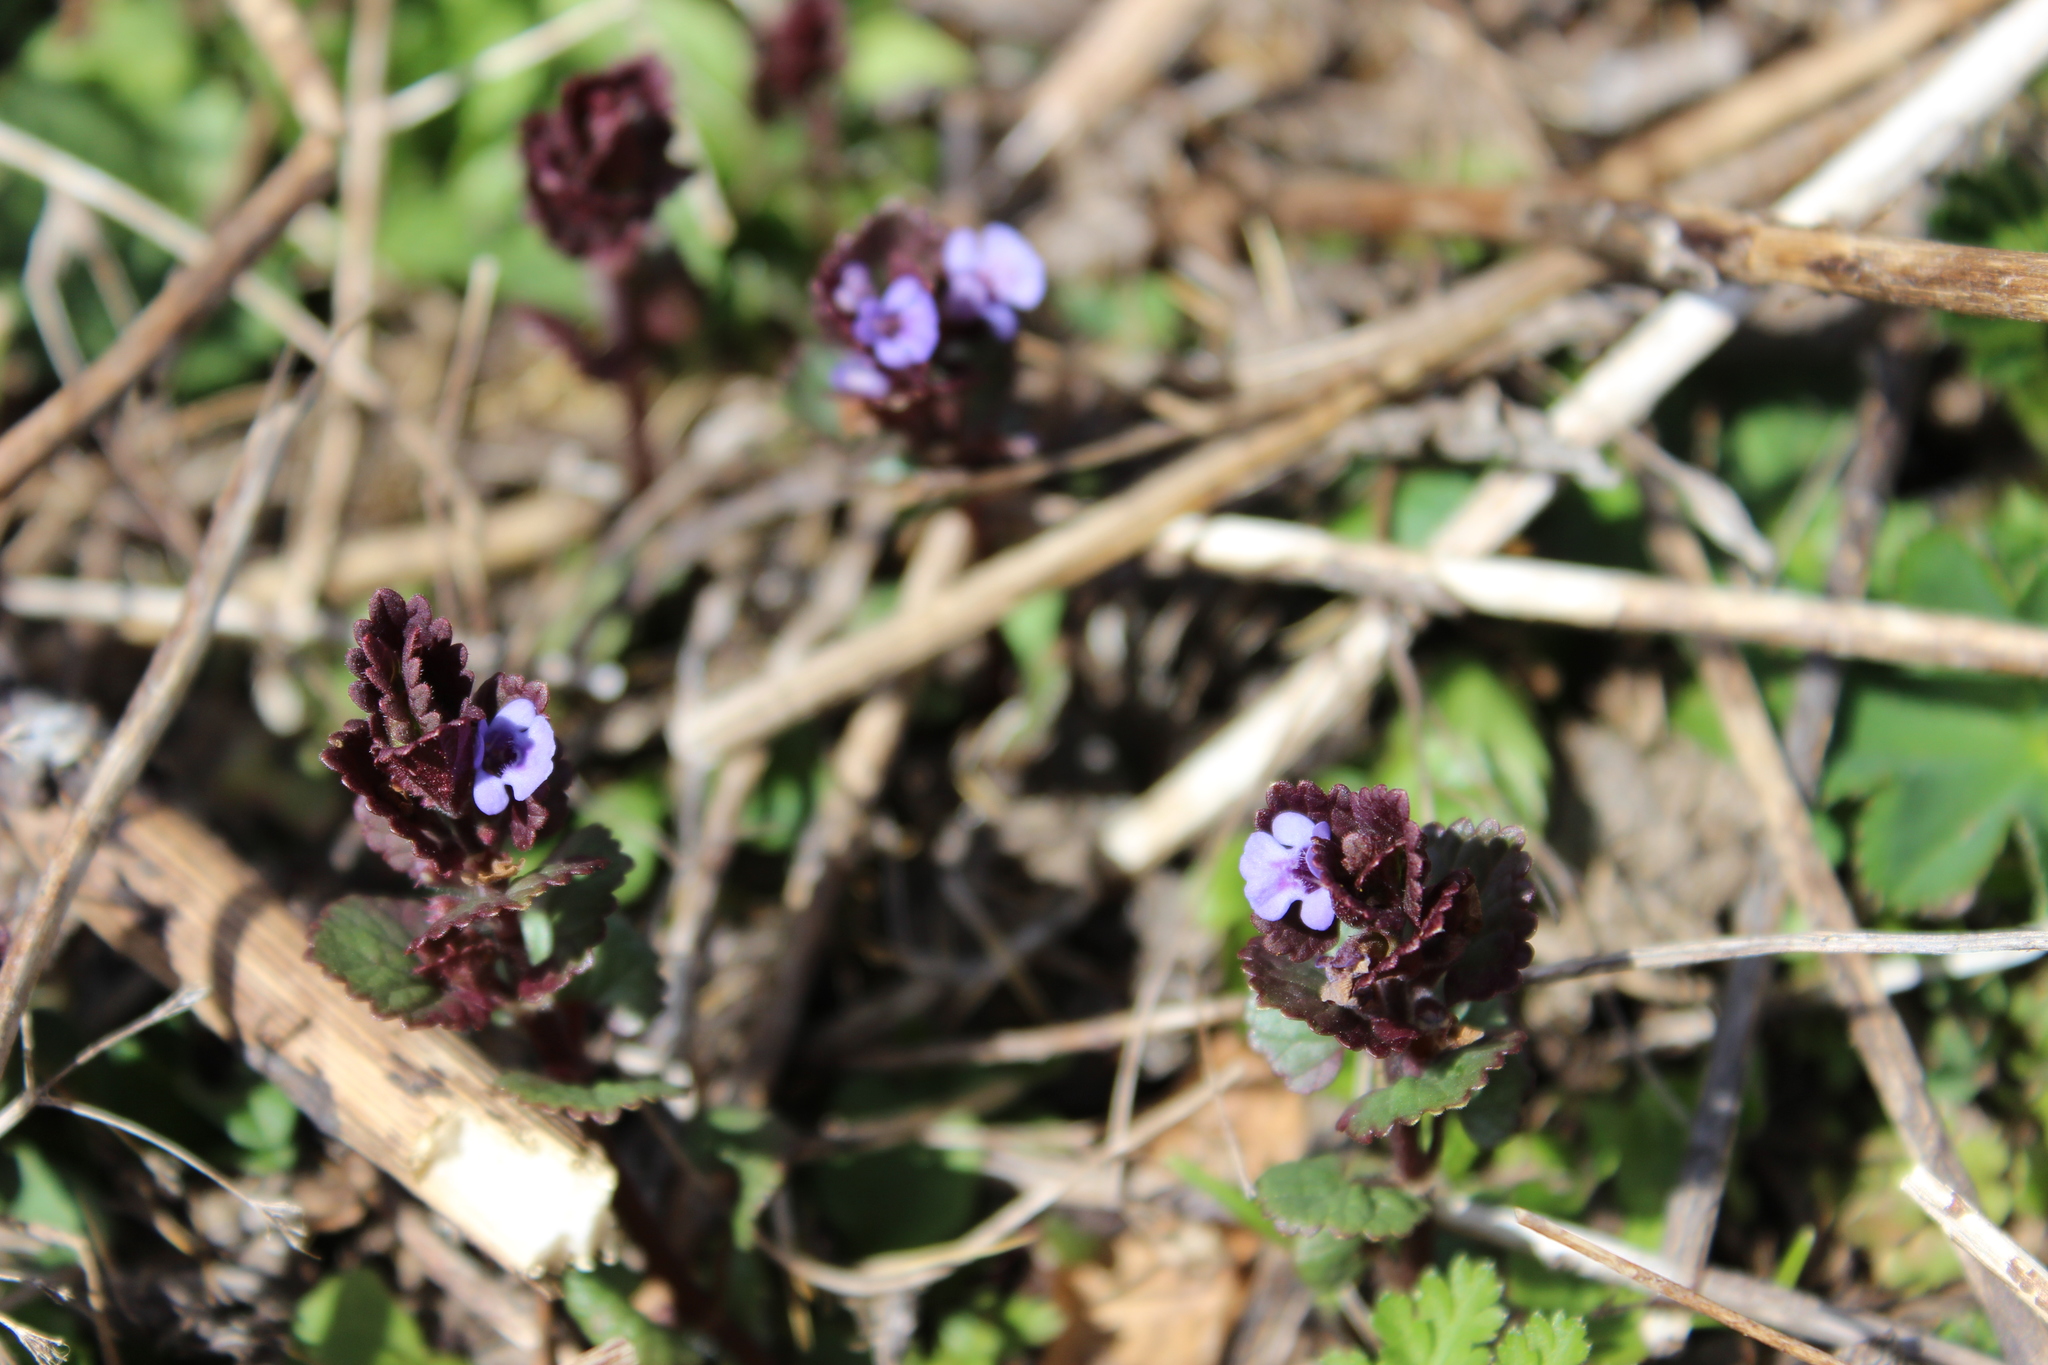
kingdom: Plantae
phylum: Tracheophyta
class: Magnoliopsida
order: Lamiales
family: Lamiaceae
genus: Prunella
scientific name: Prunella vulgaris
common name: Heal-all
